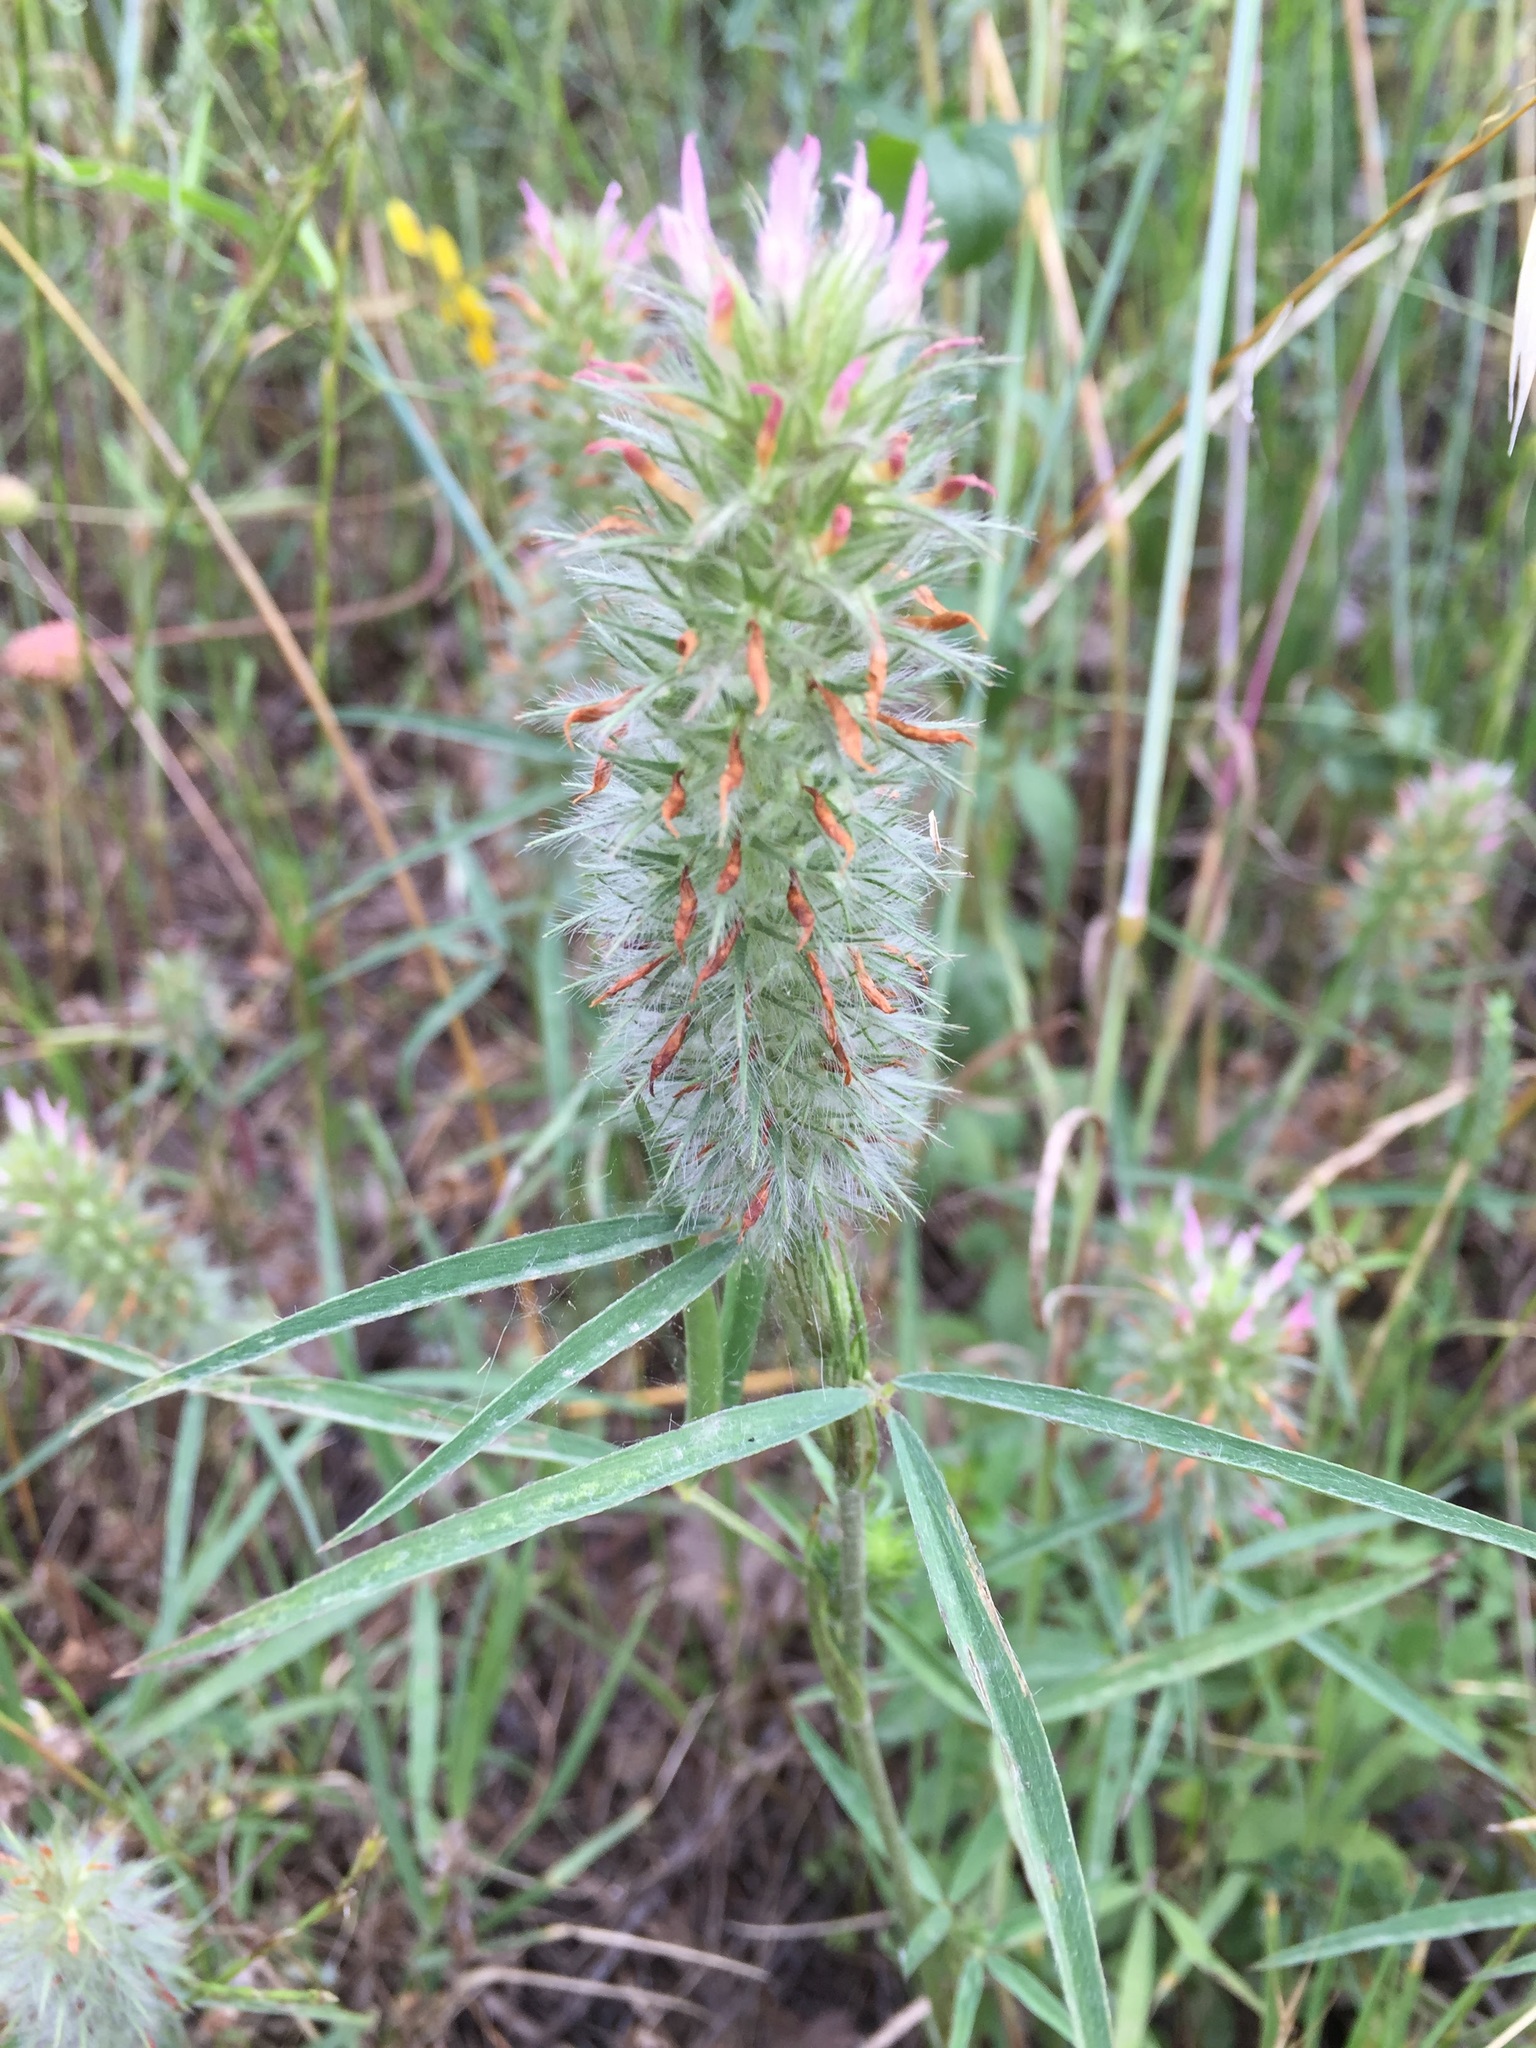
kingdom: Plantae
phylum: Tracheophyta
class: Magnoliopsida
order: Fabales
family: Fabaceae
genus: Trifolium
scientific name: Trifolium angustifolium
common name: Narrow clover
